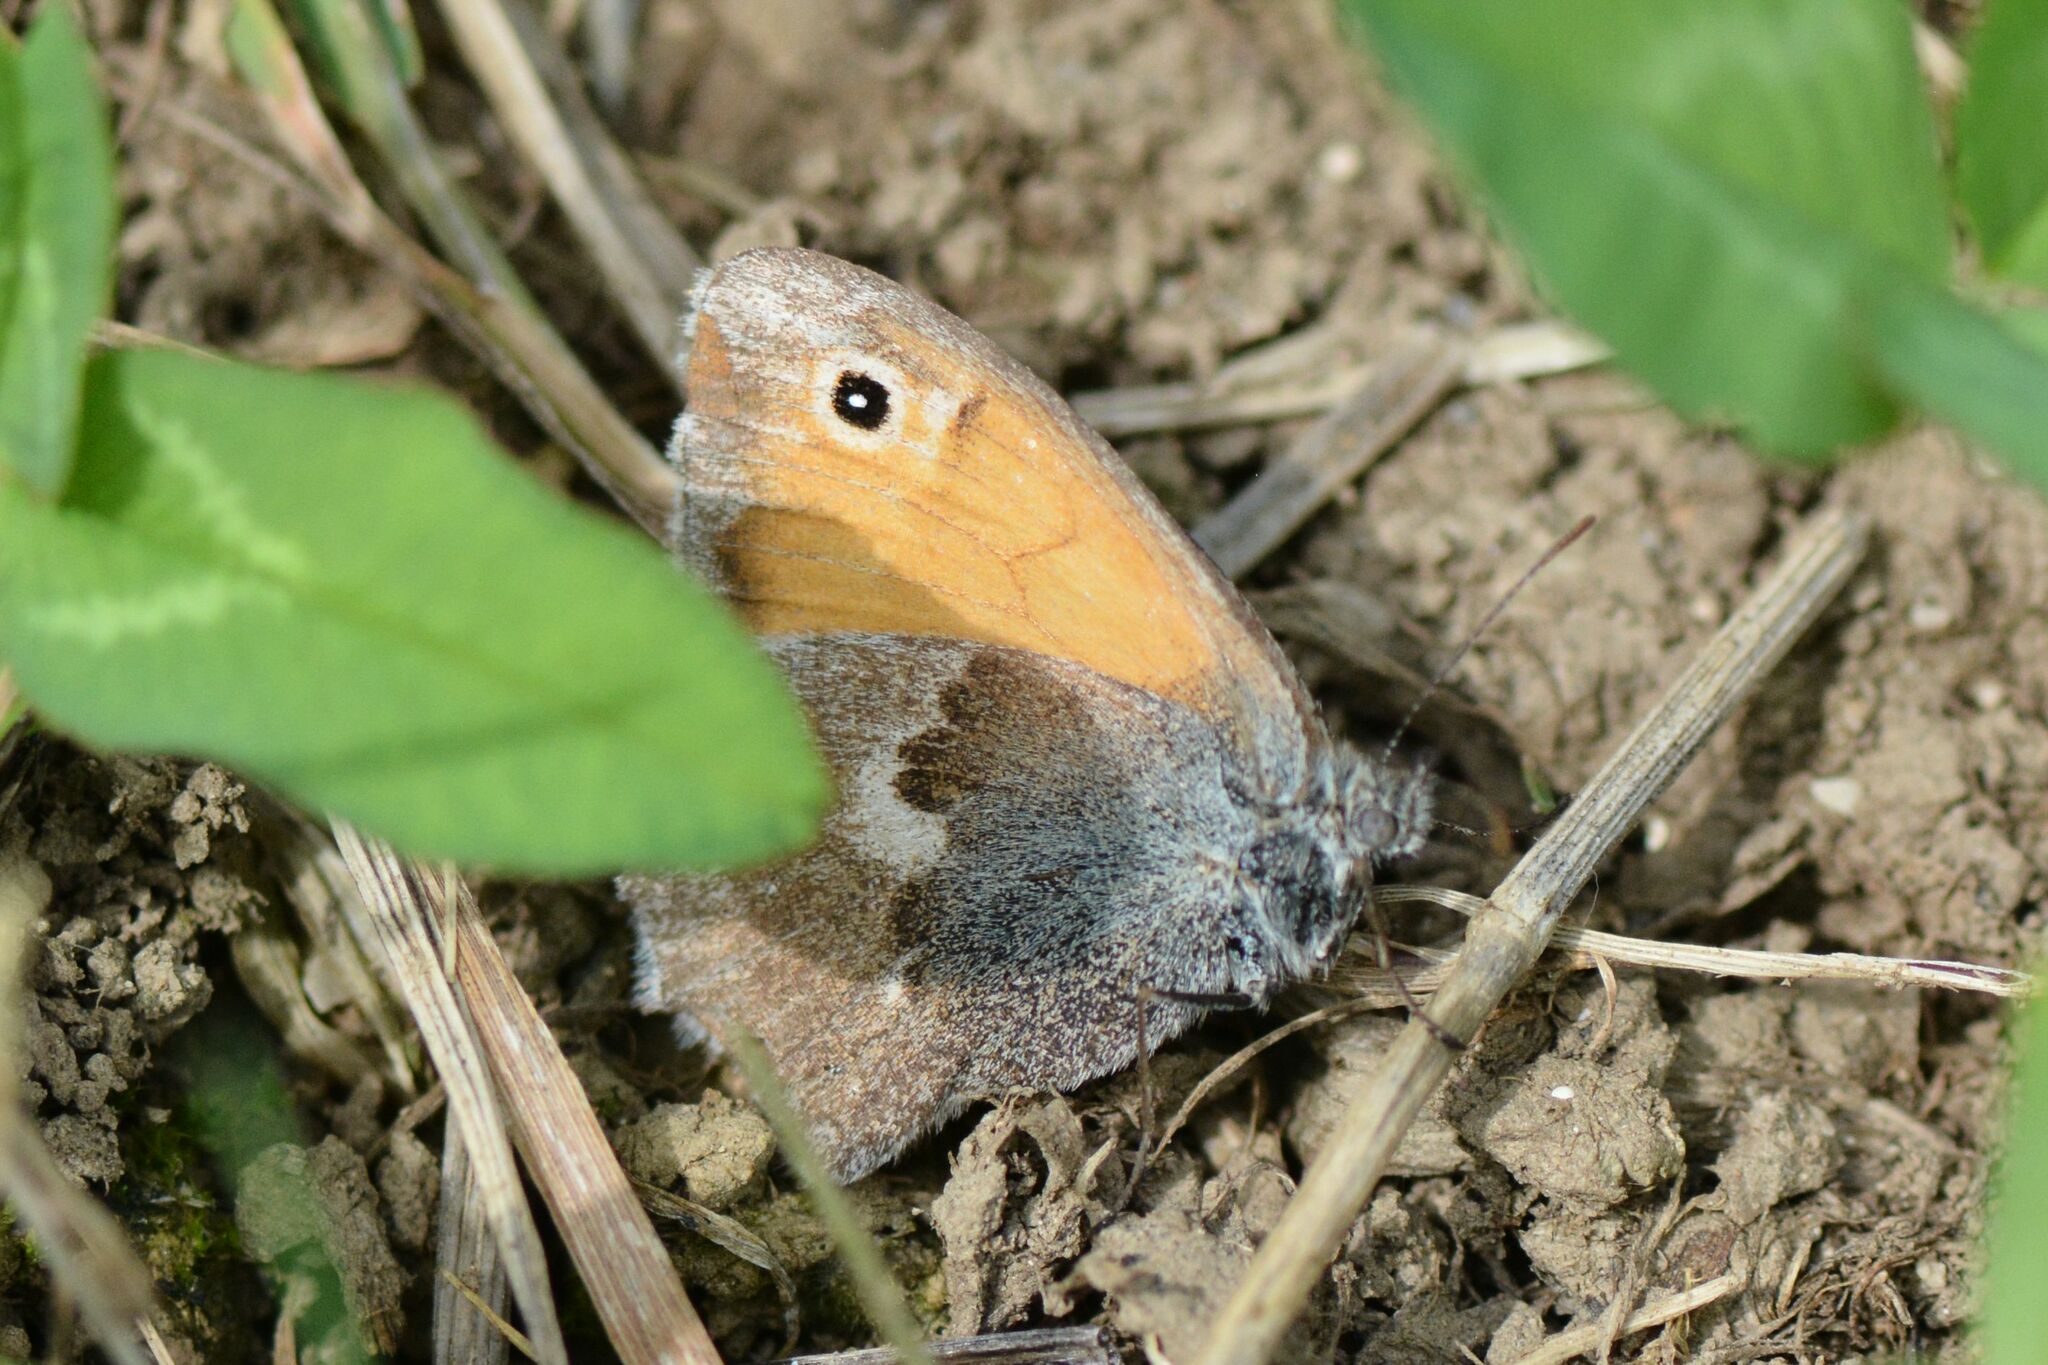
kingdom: Animalia
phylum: Arthropoda
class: Insecta
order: Lepidoptera
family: Nymphalidae
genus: Coenonympha
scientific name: Coenonympha pamphilus
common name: Small heath
